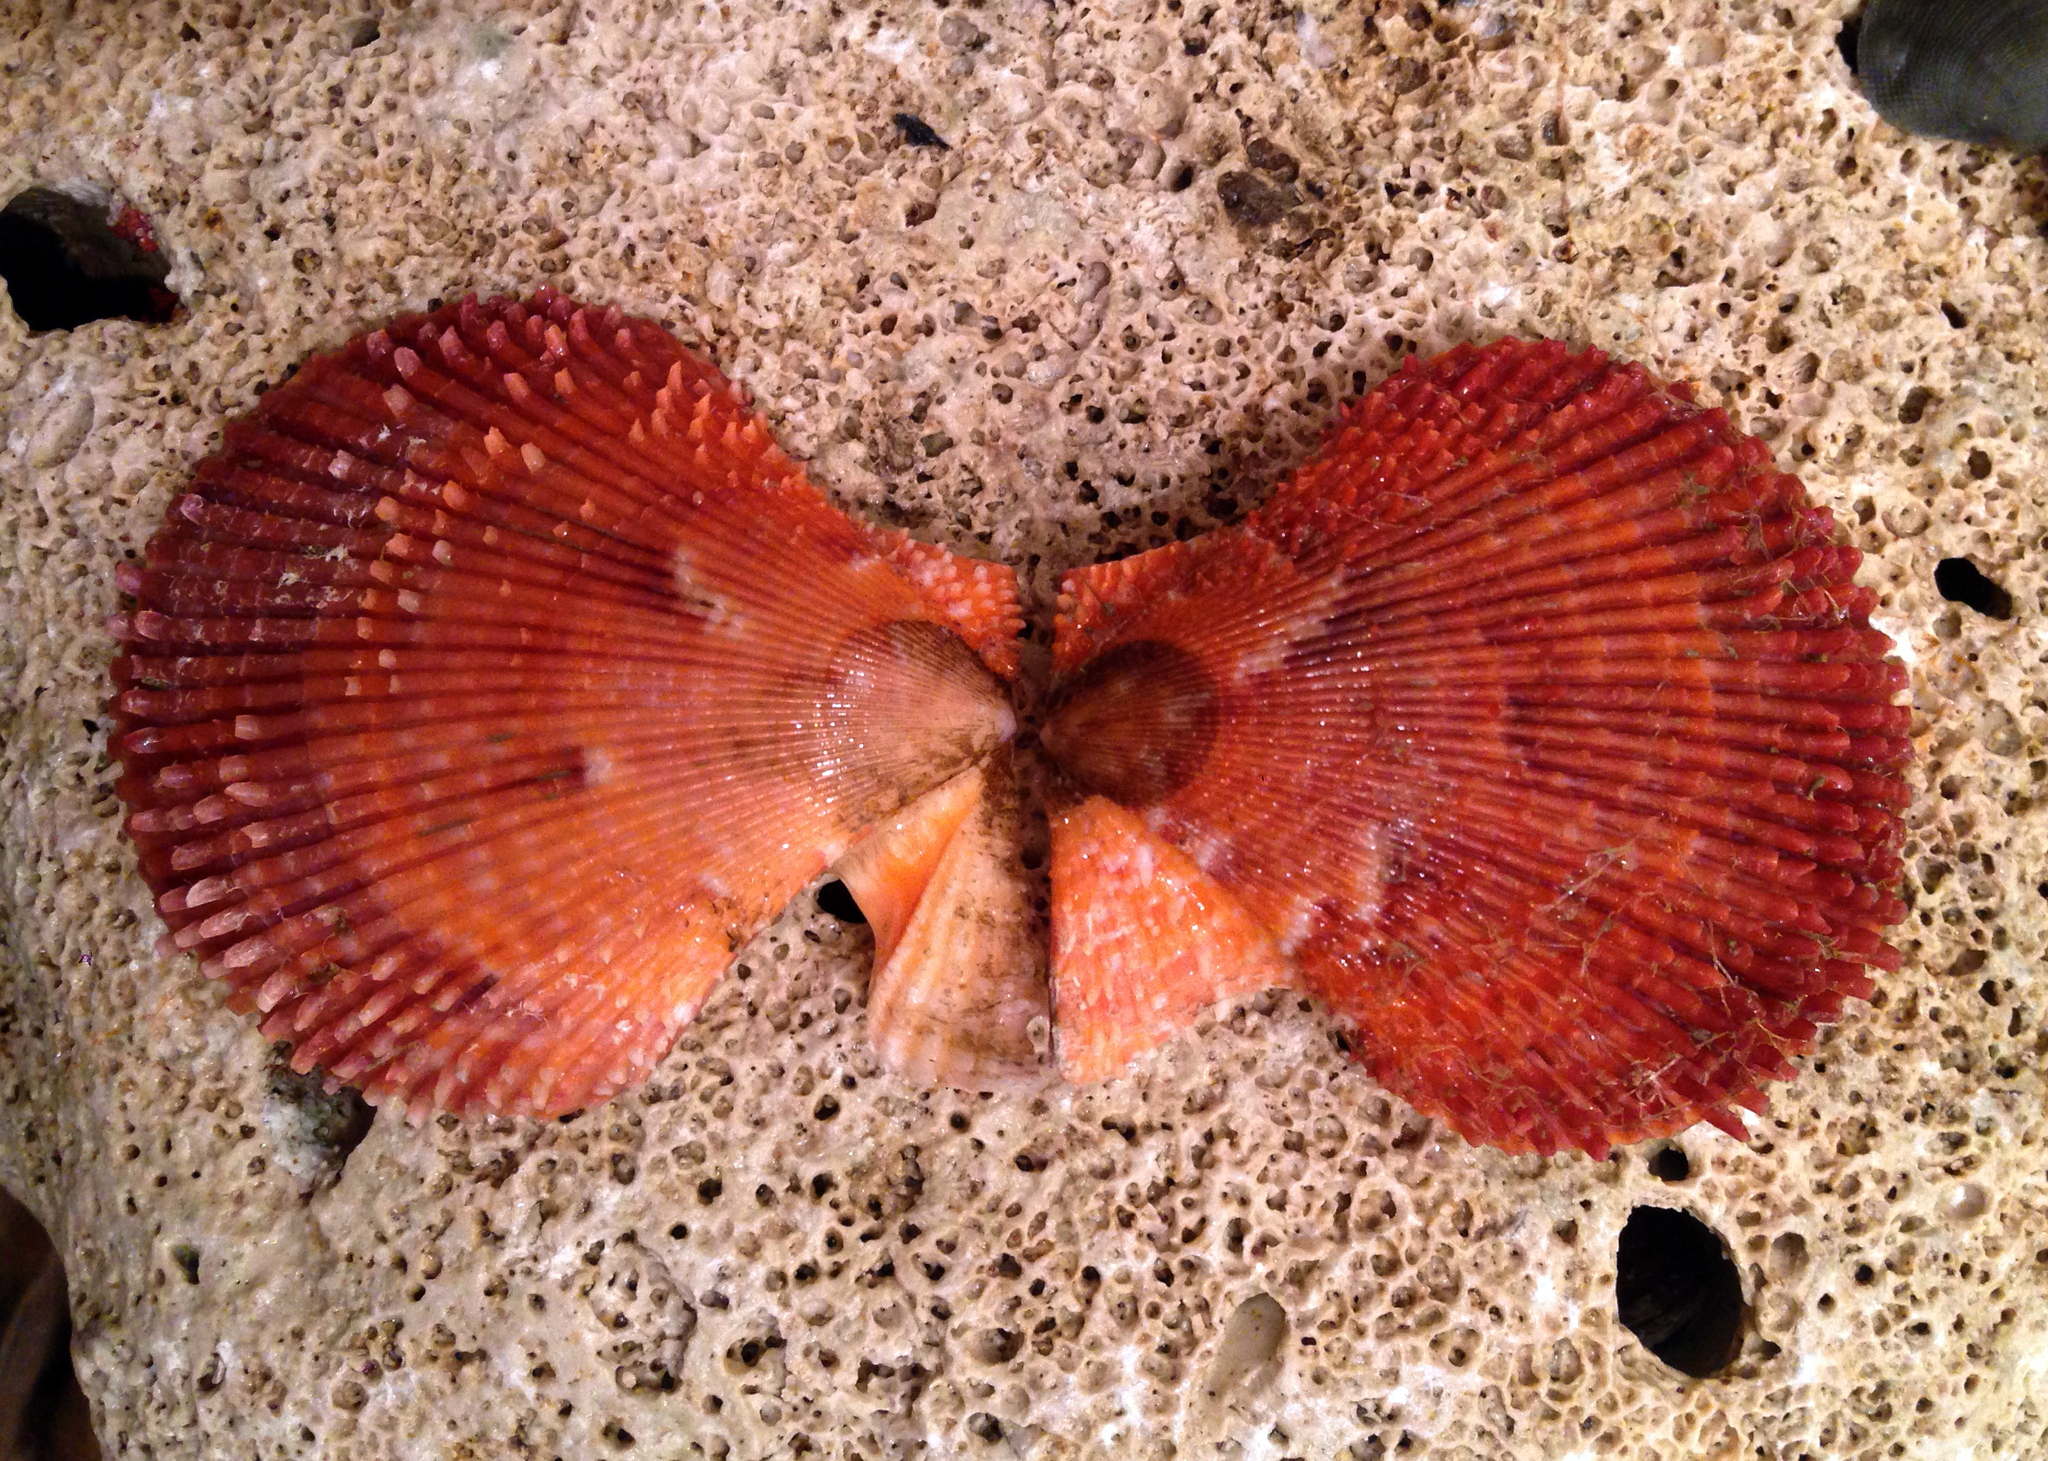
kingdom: Animalia
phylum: Mollusca
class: Bivalvia
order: Pectinida
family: Pectinidae
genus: Mimachlamys
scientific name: Mimachlamys varia
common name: Variegated scallop
